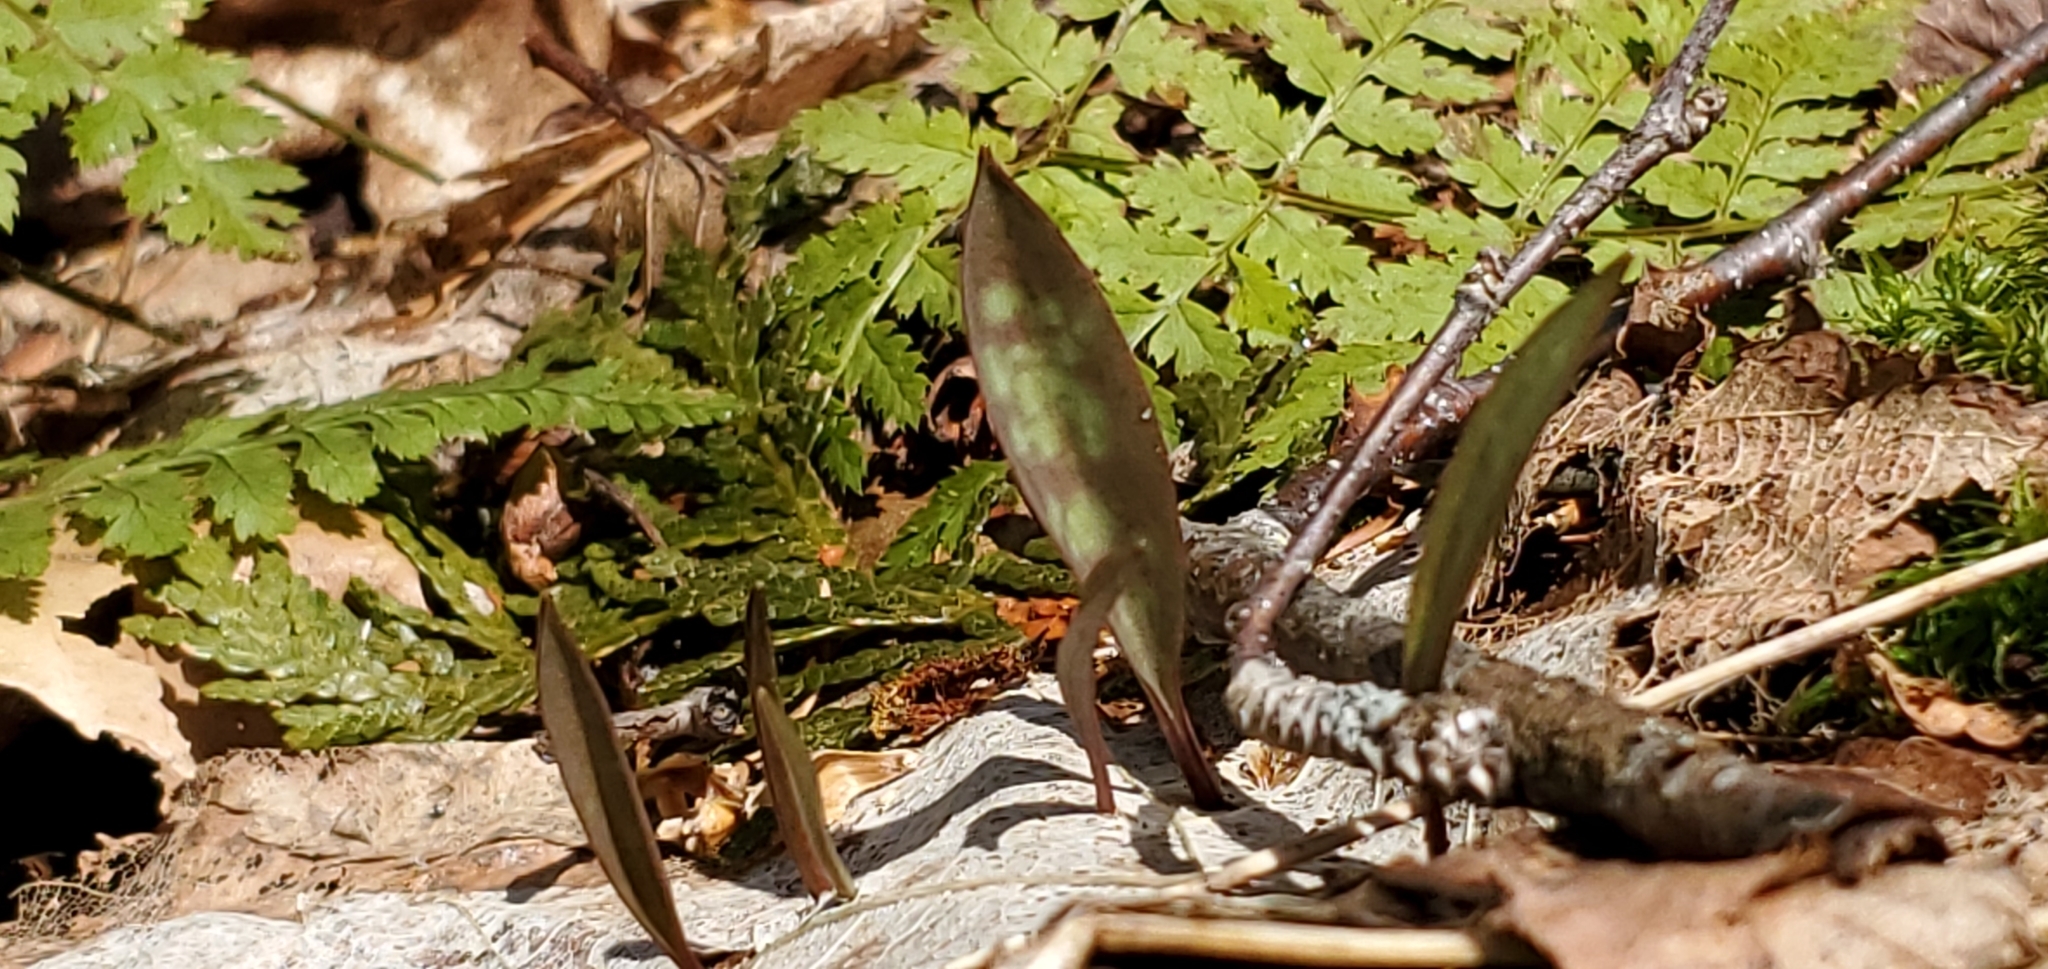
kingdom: Plantae
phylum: Tracheophyta
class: Liliopsida
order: Liliales
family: Liliaceae
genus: Erythronium
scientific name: Erythronium americanum
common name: Yellow adder's-tongue
